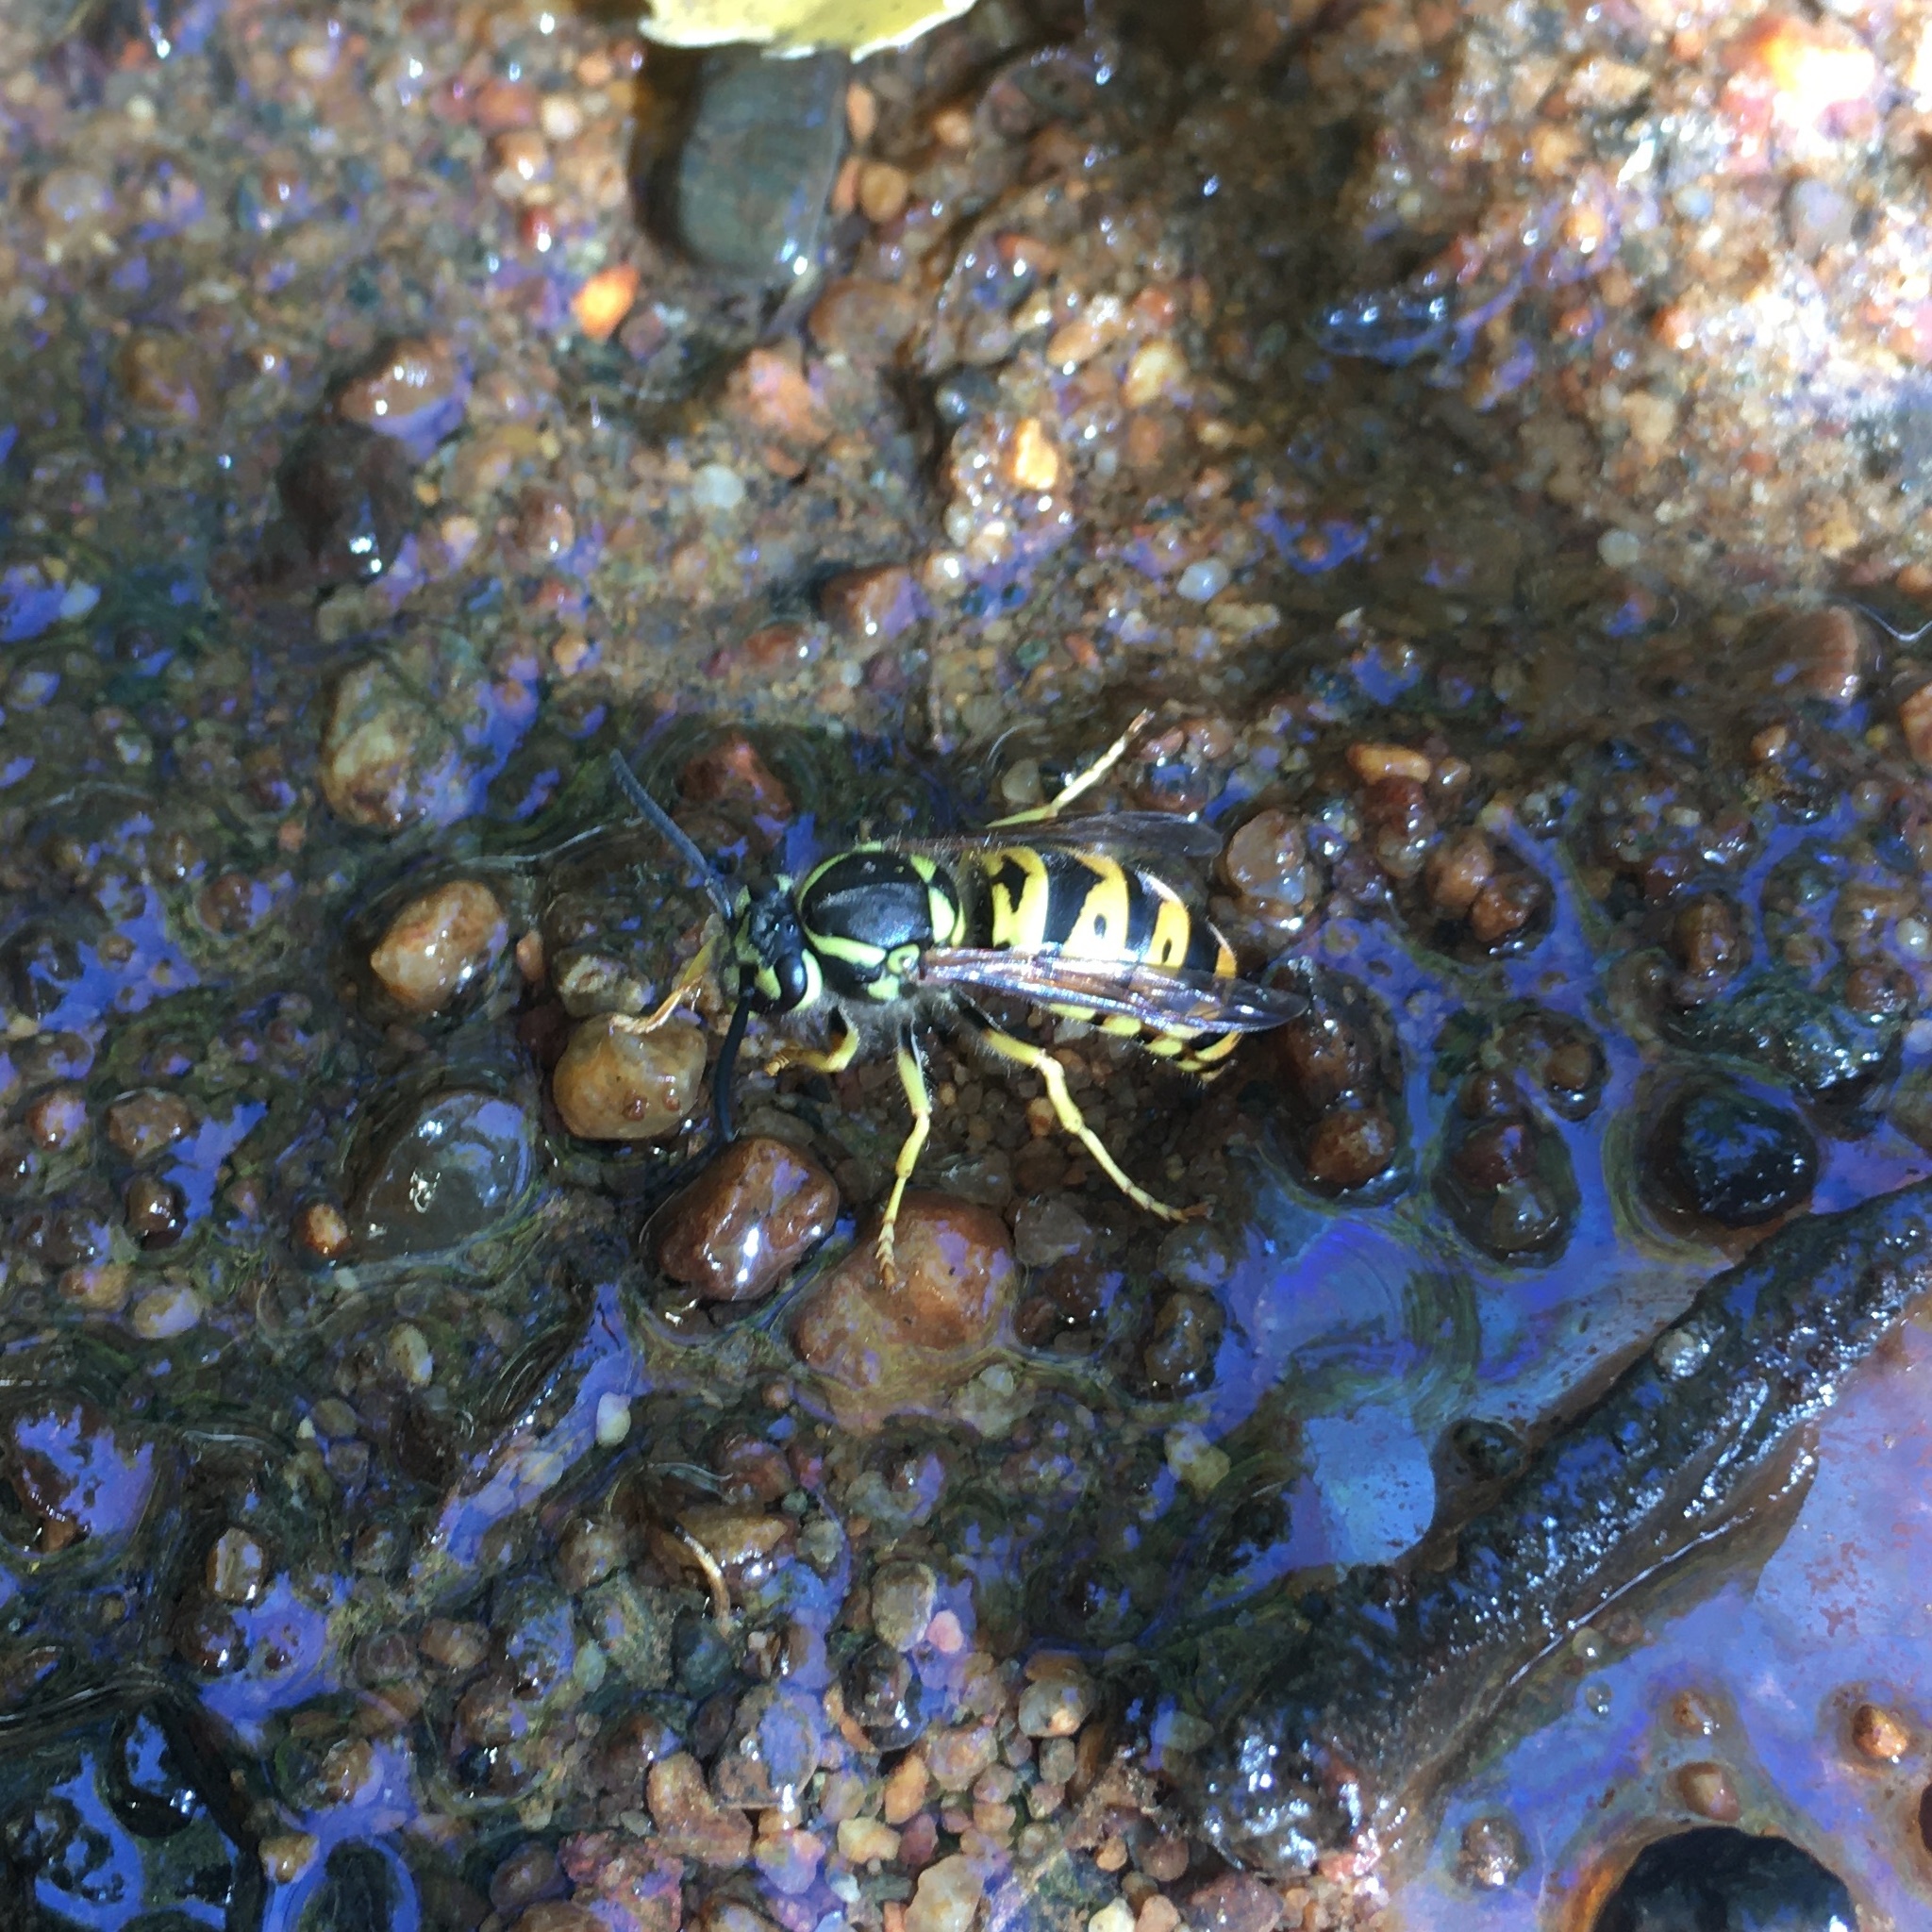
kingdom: Animalia
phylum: Arthropoda
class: Insecta
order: Hymenoptera
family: Vespidae
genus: Vespula
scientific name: Vespula maculifrons
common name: Eastern yellowjacket
